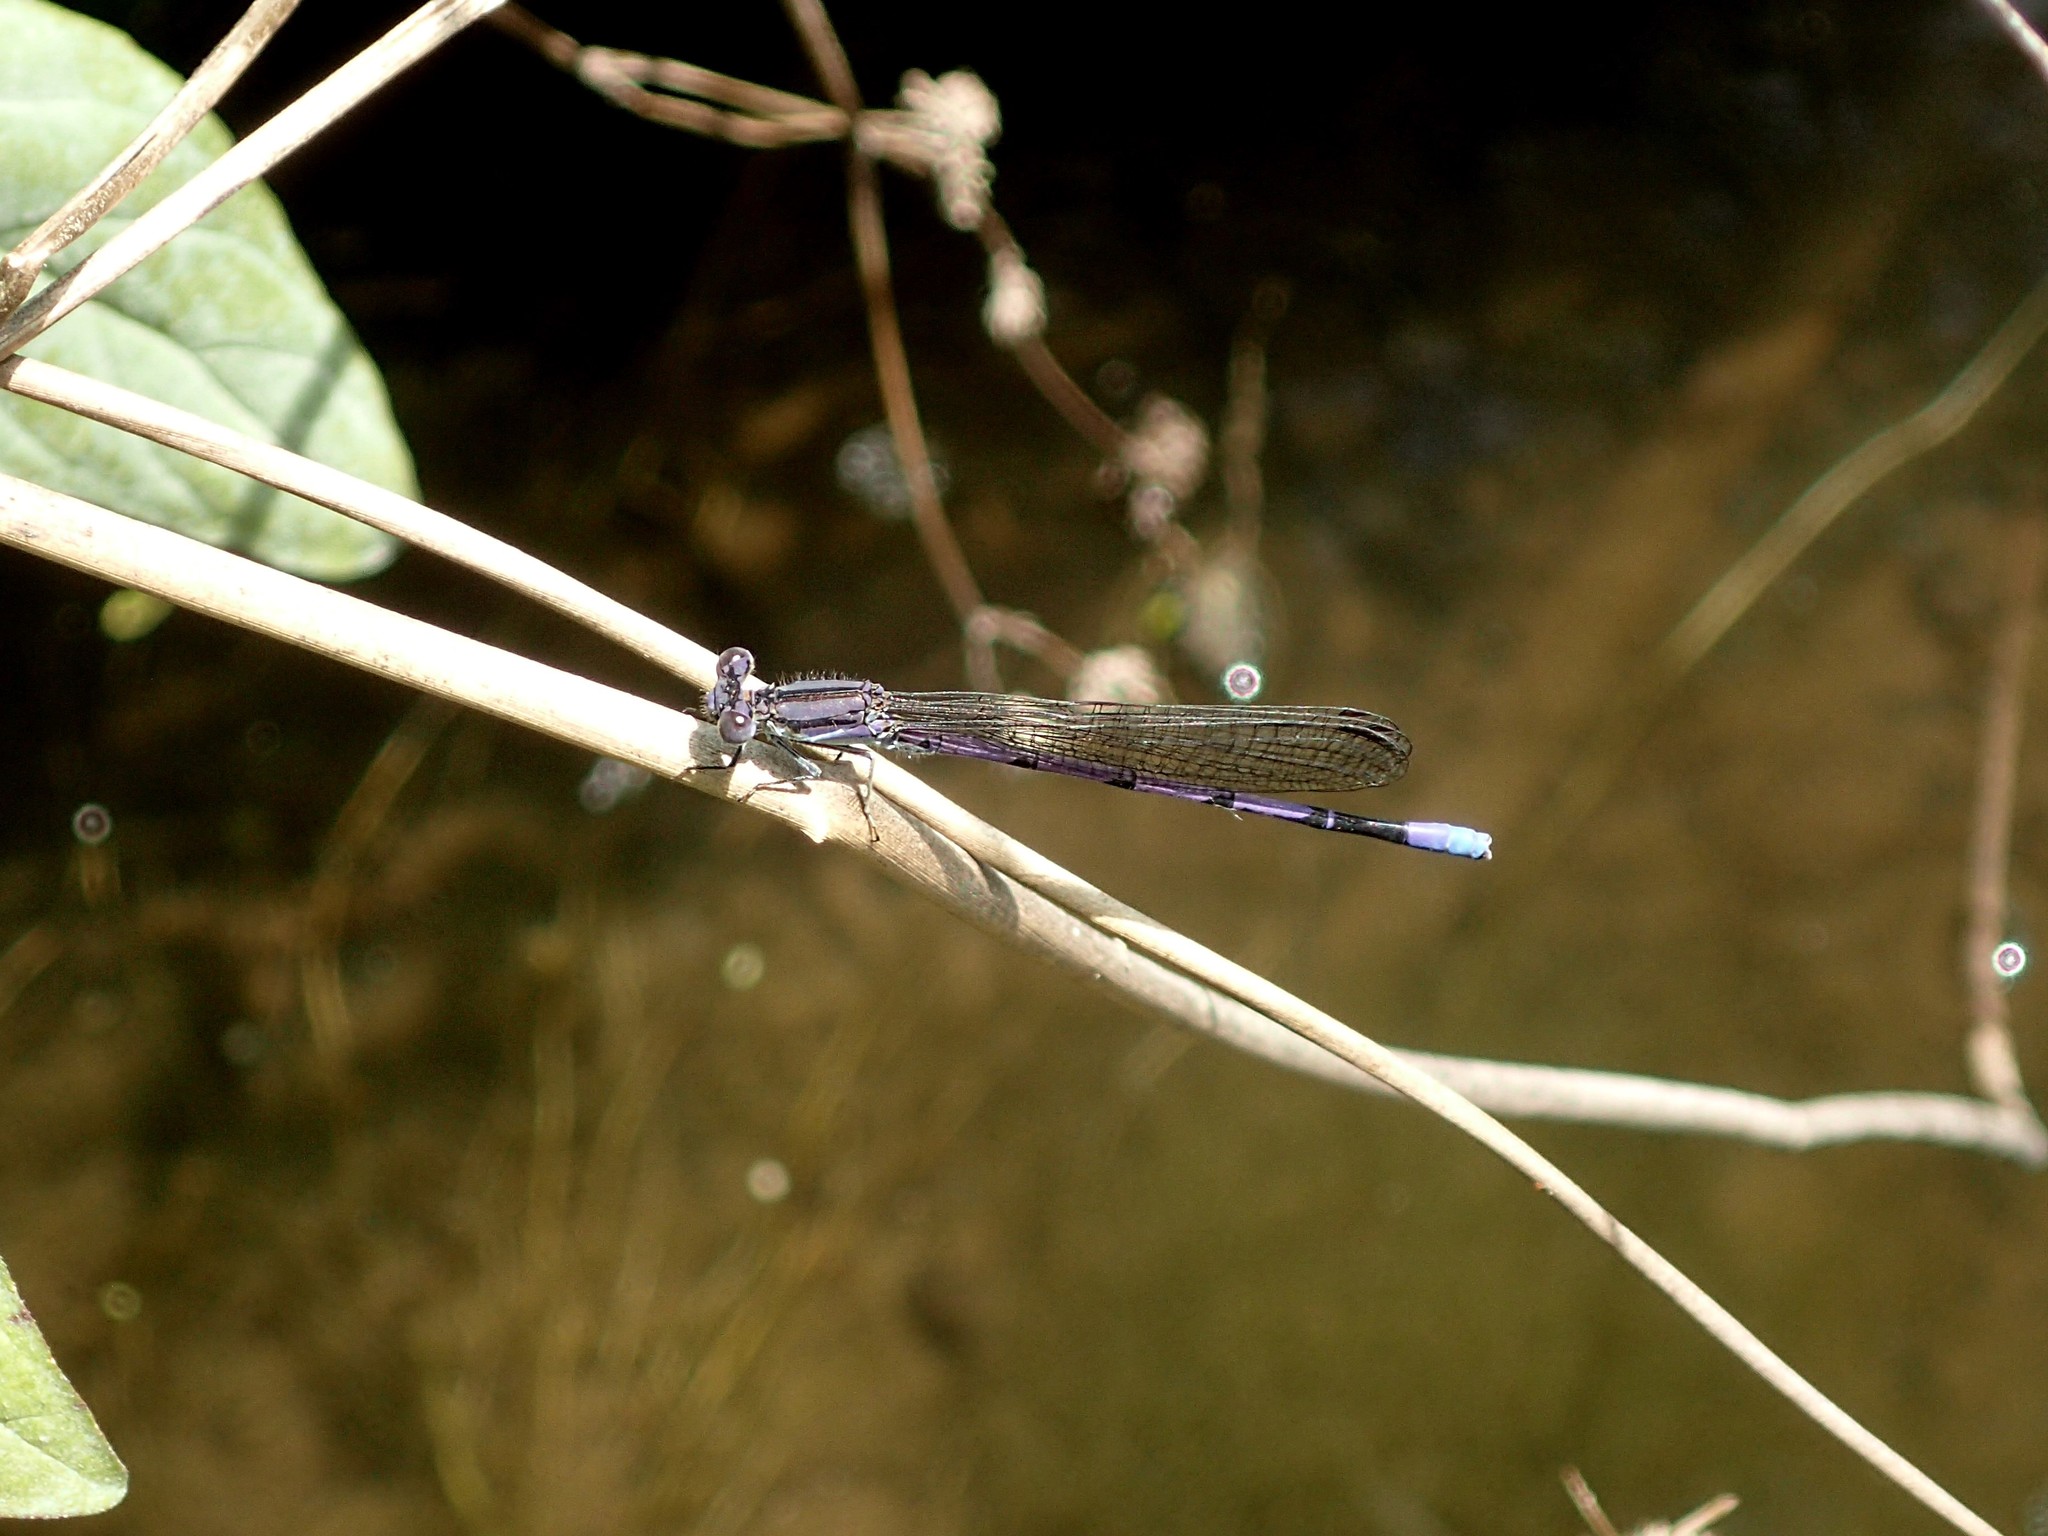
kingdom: Animalia
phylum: Arthropoda
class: Insecta
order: Odonata
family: Coenagrionidae
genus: Argia
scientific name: Argia fumipennis
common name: Variable dancer
